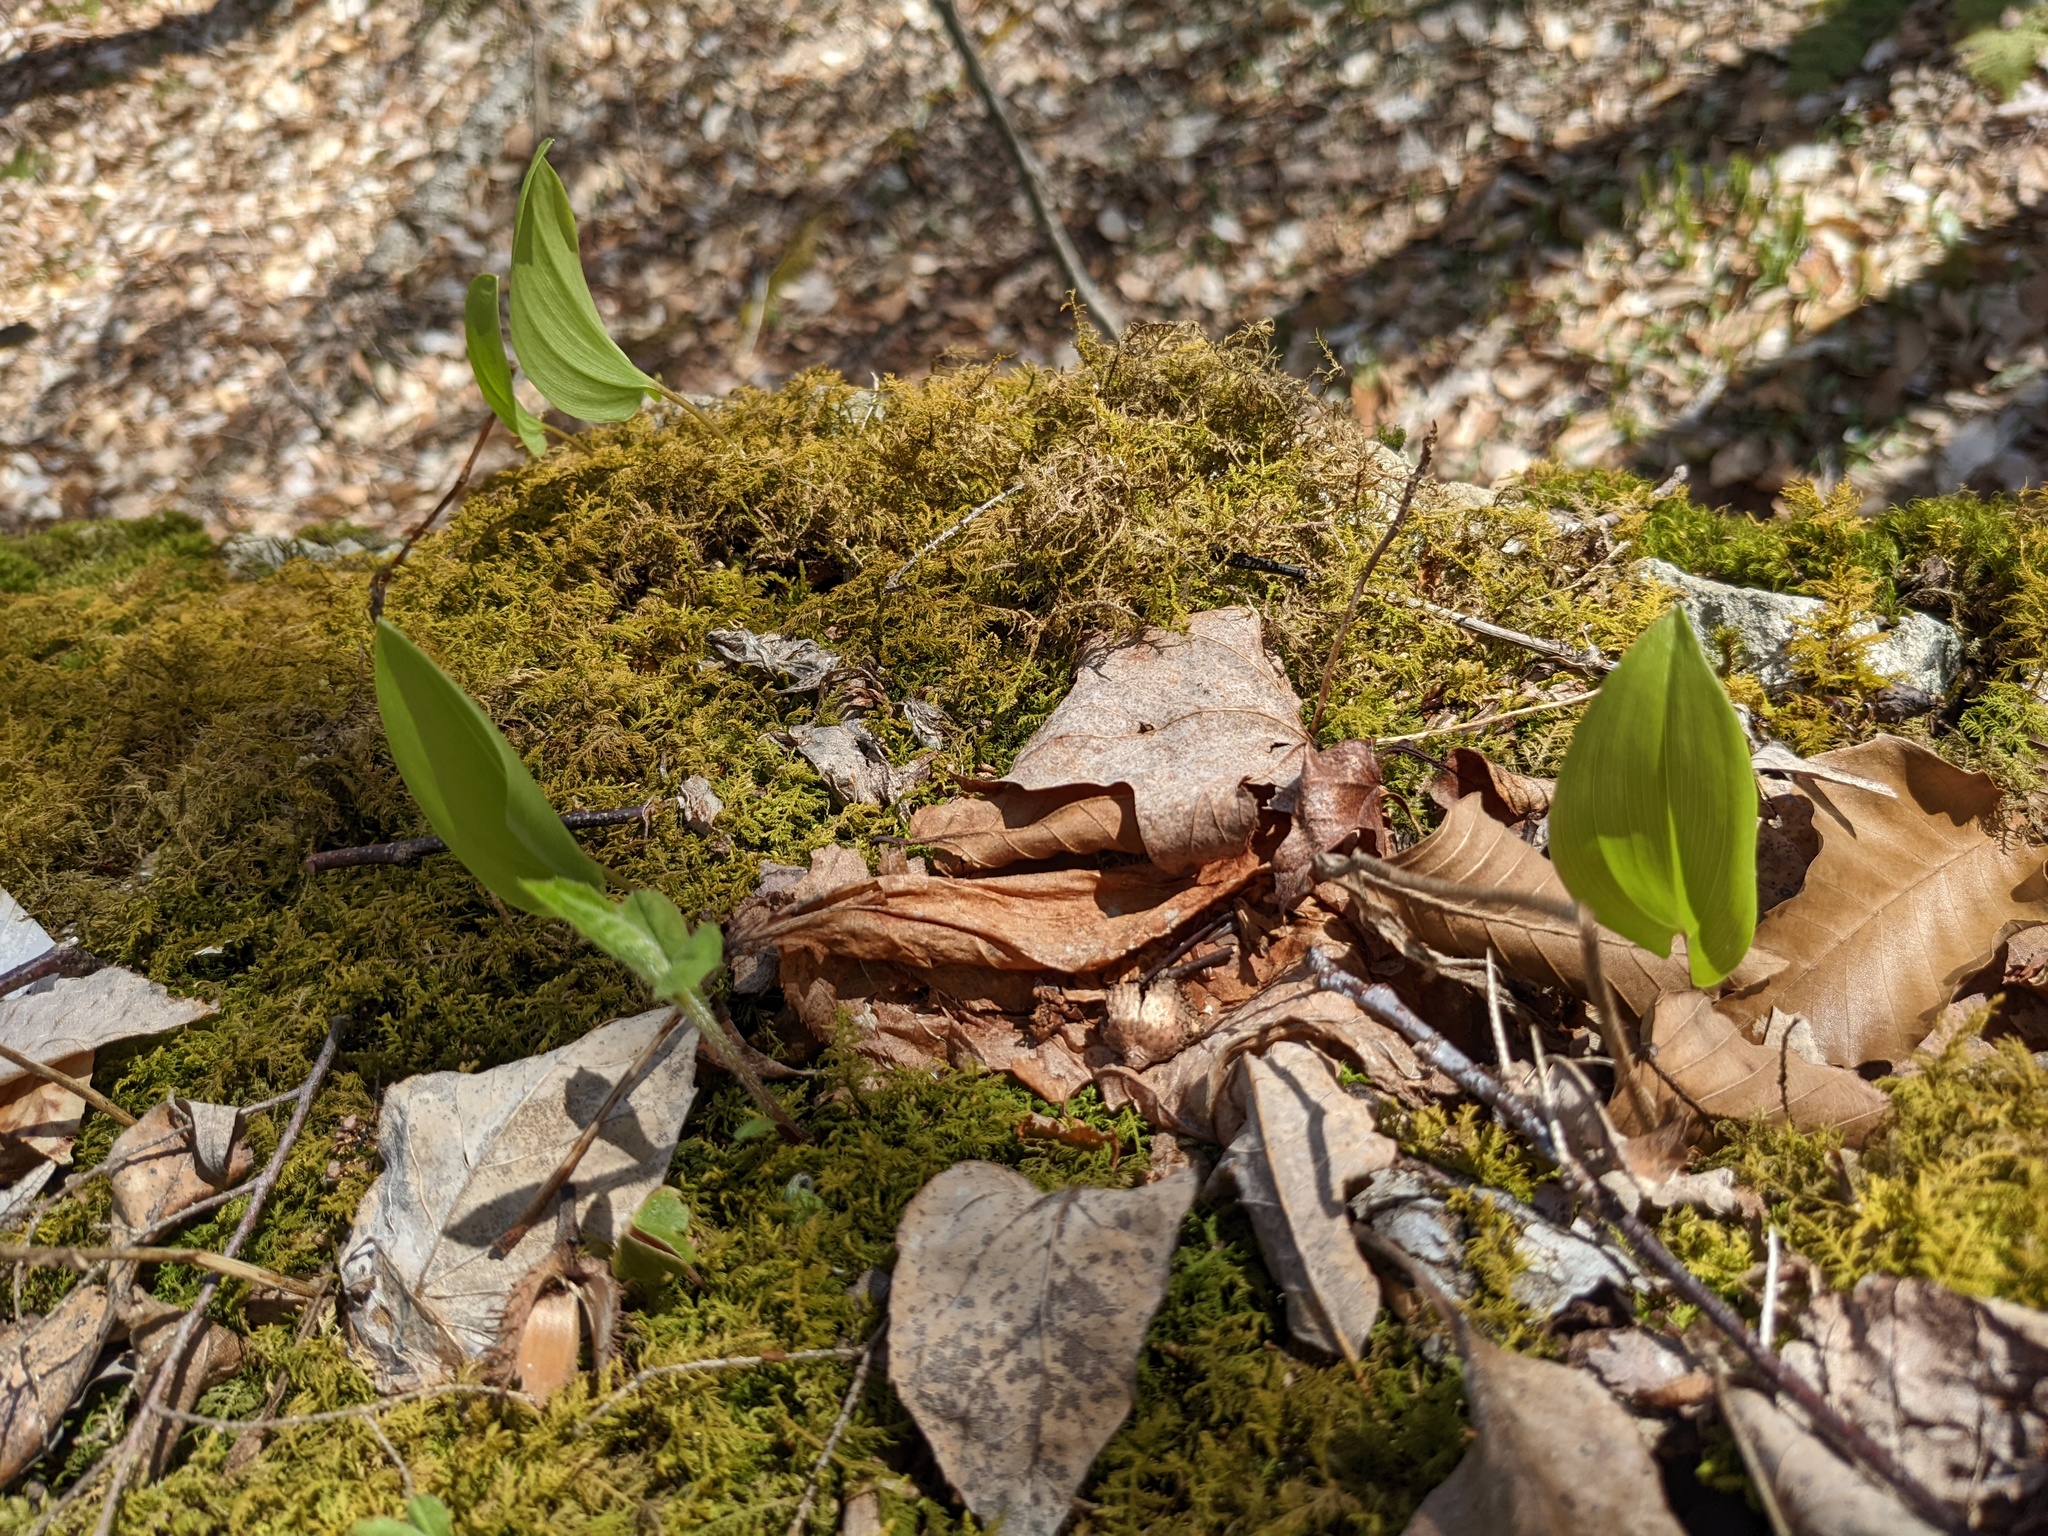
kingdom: Plantae
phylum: Tracheophyta
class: Liliopsida
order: Asparagales
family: Asparagaceae
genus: Maianthemum
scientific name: Maianthemum canadense
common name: False lily-of-the-valley
